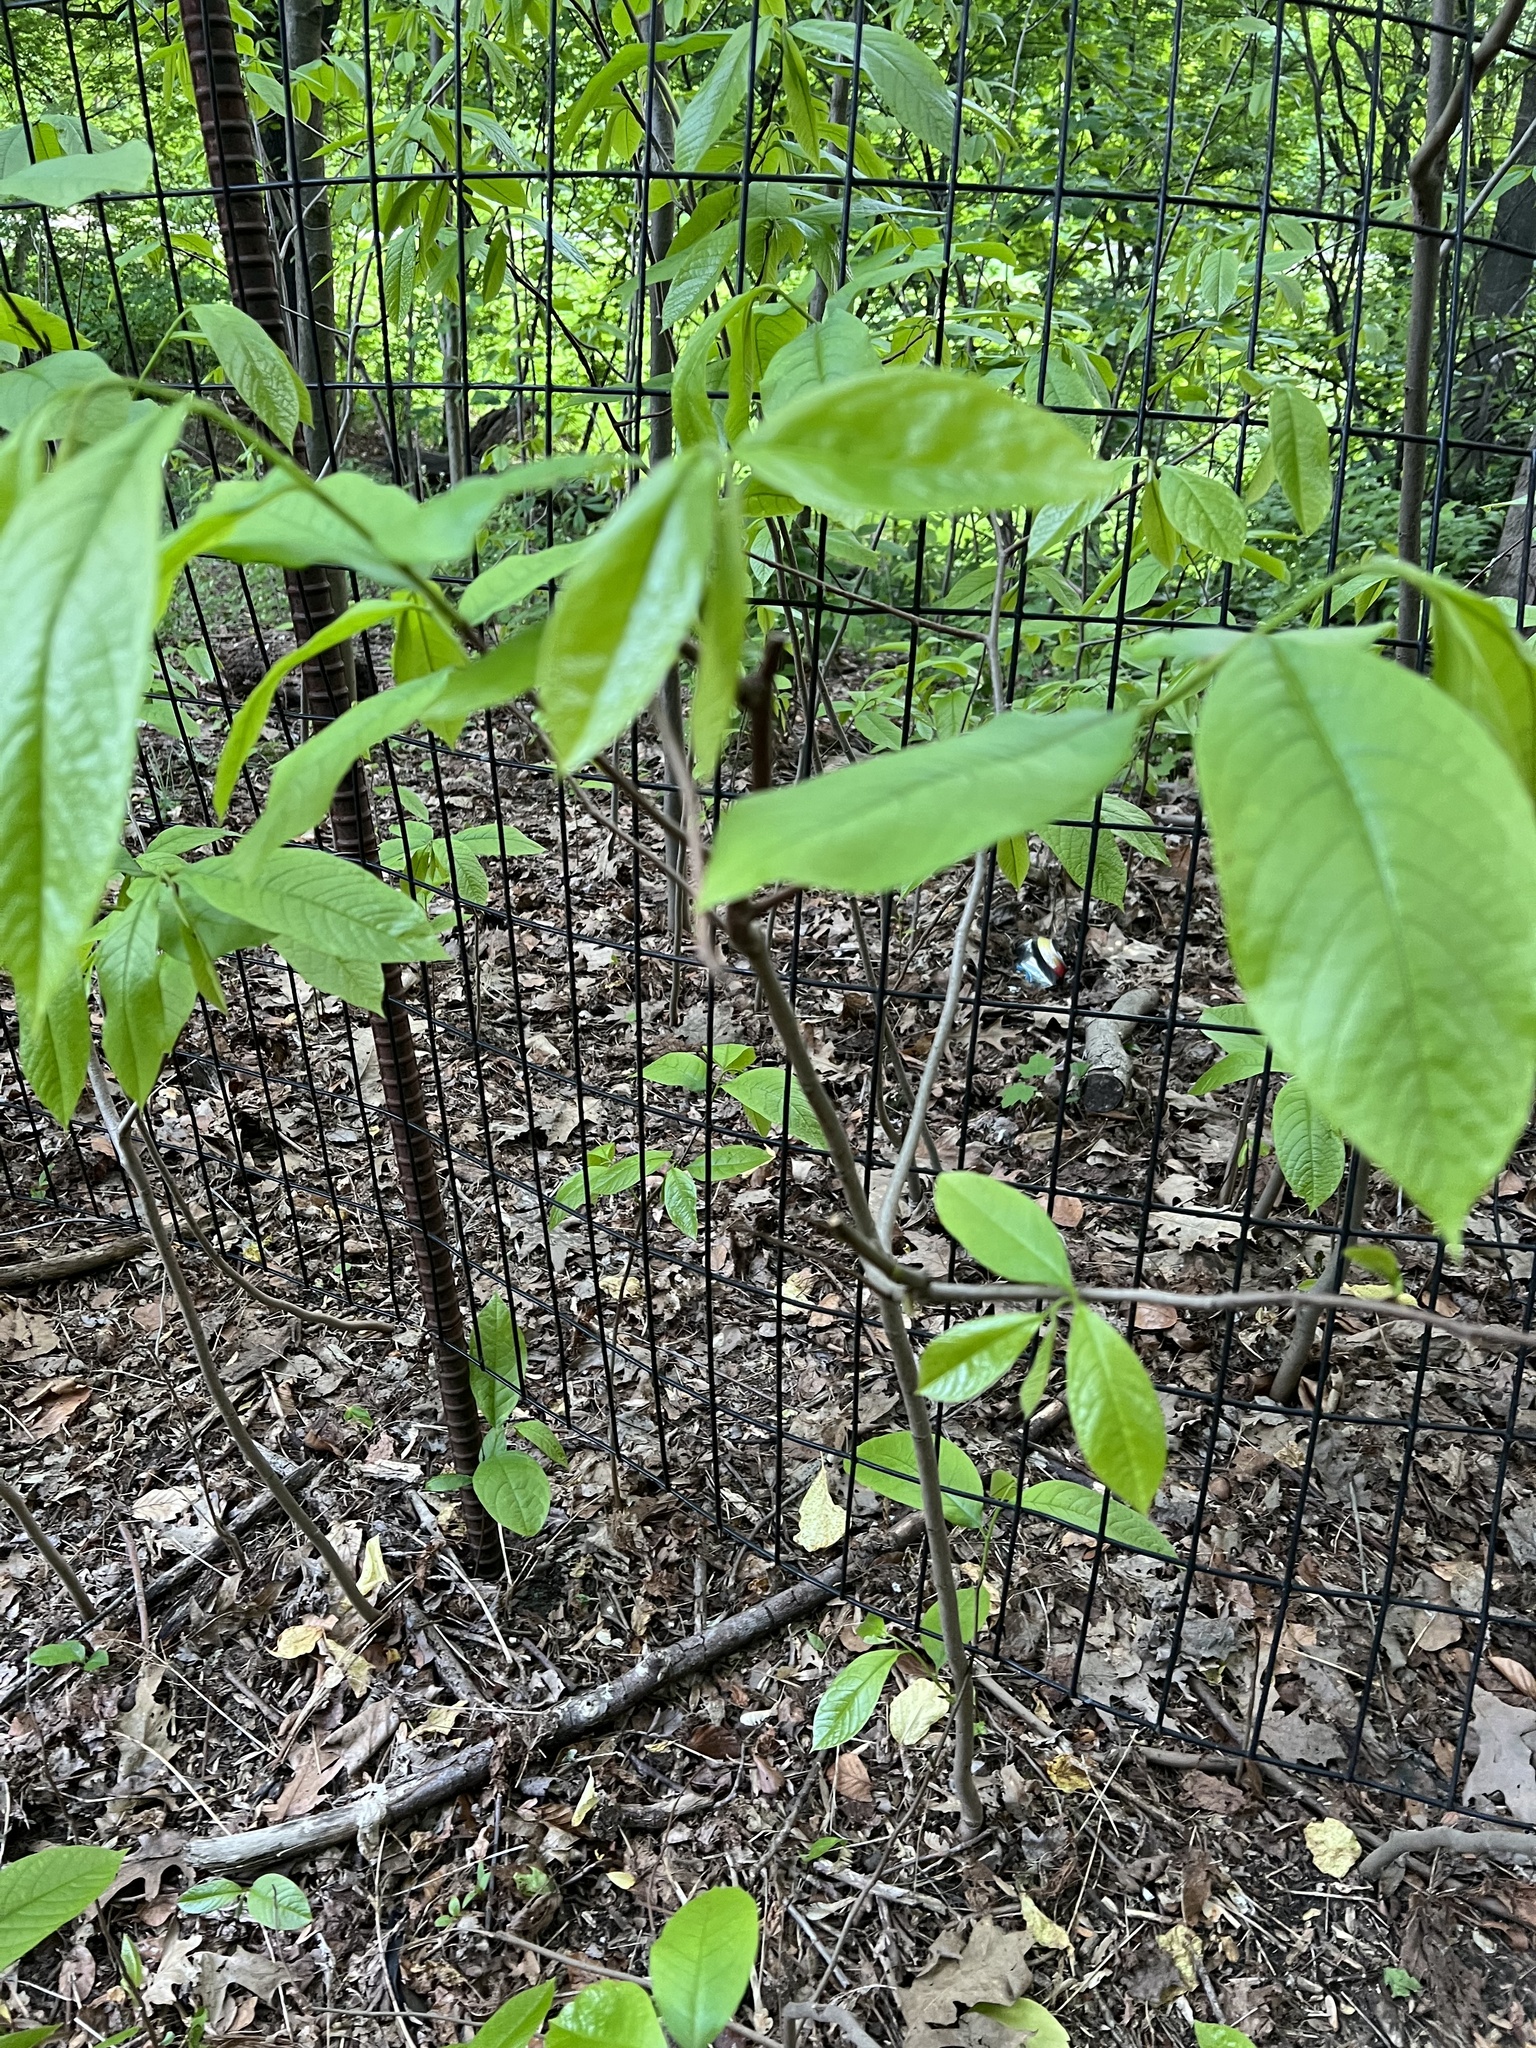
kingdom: Plantae
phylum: Tracheophyta
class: Magnoliopsida
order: Magnoliales
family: Annonaceae
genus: Asimina
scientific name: Asimina triloba
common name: Dog-banana
